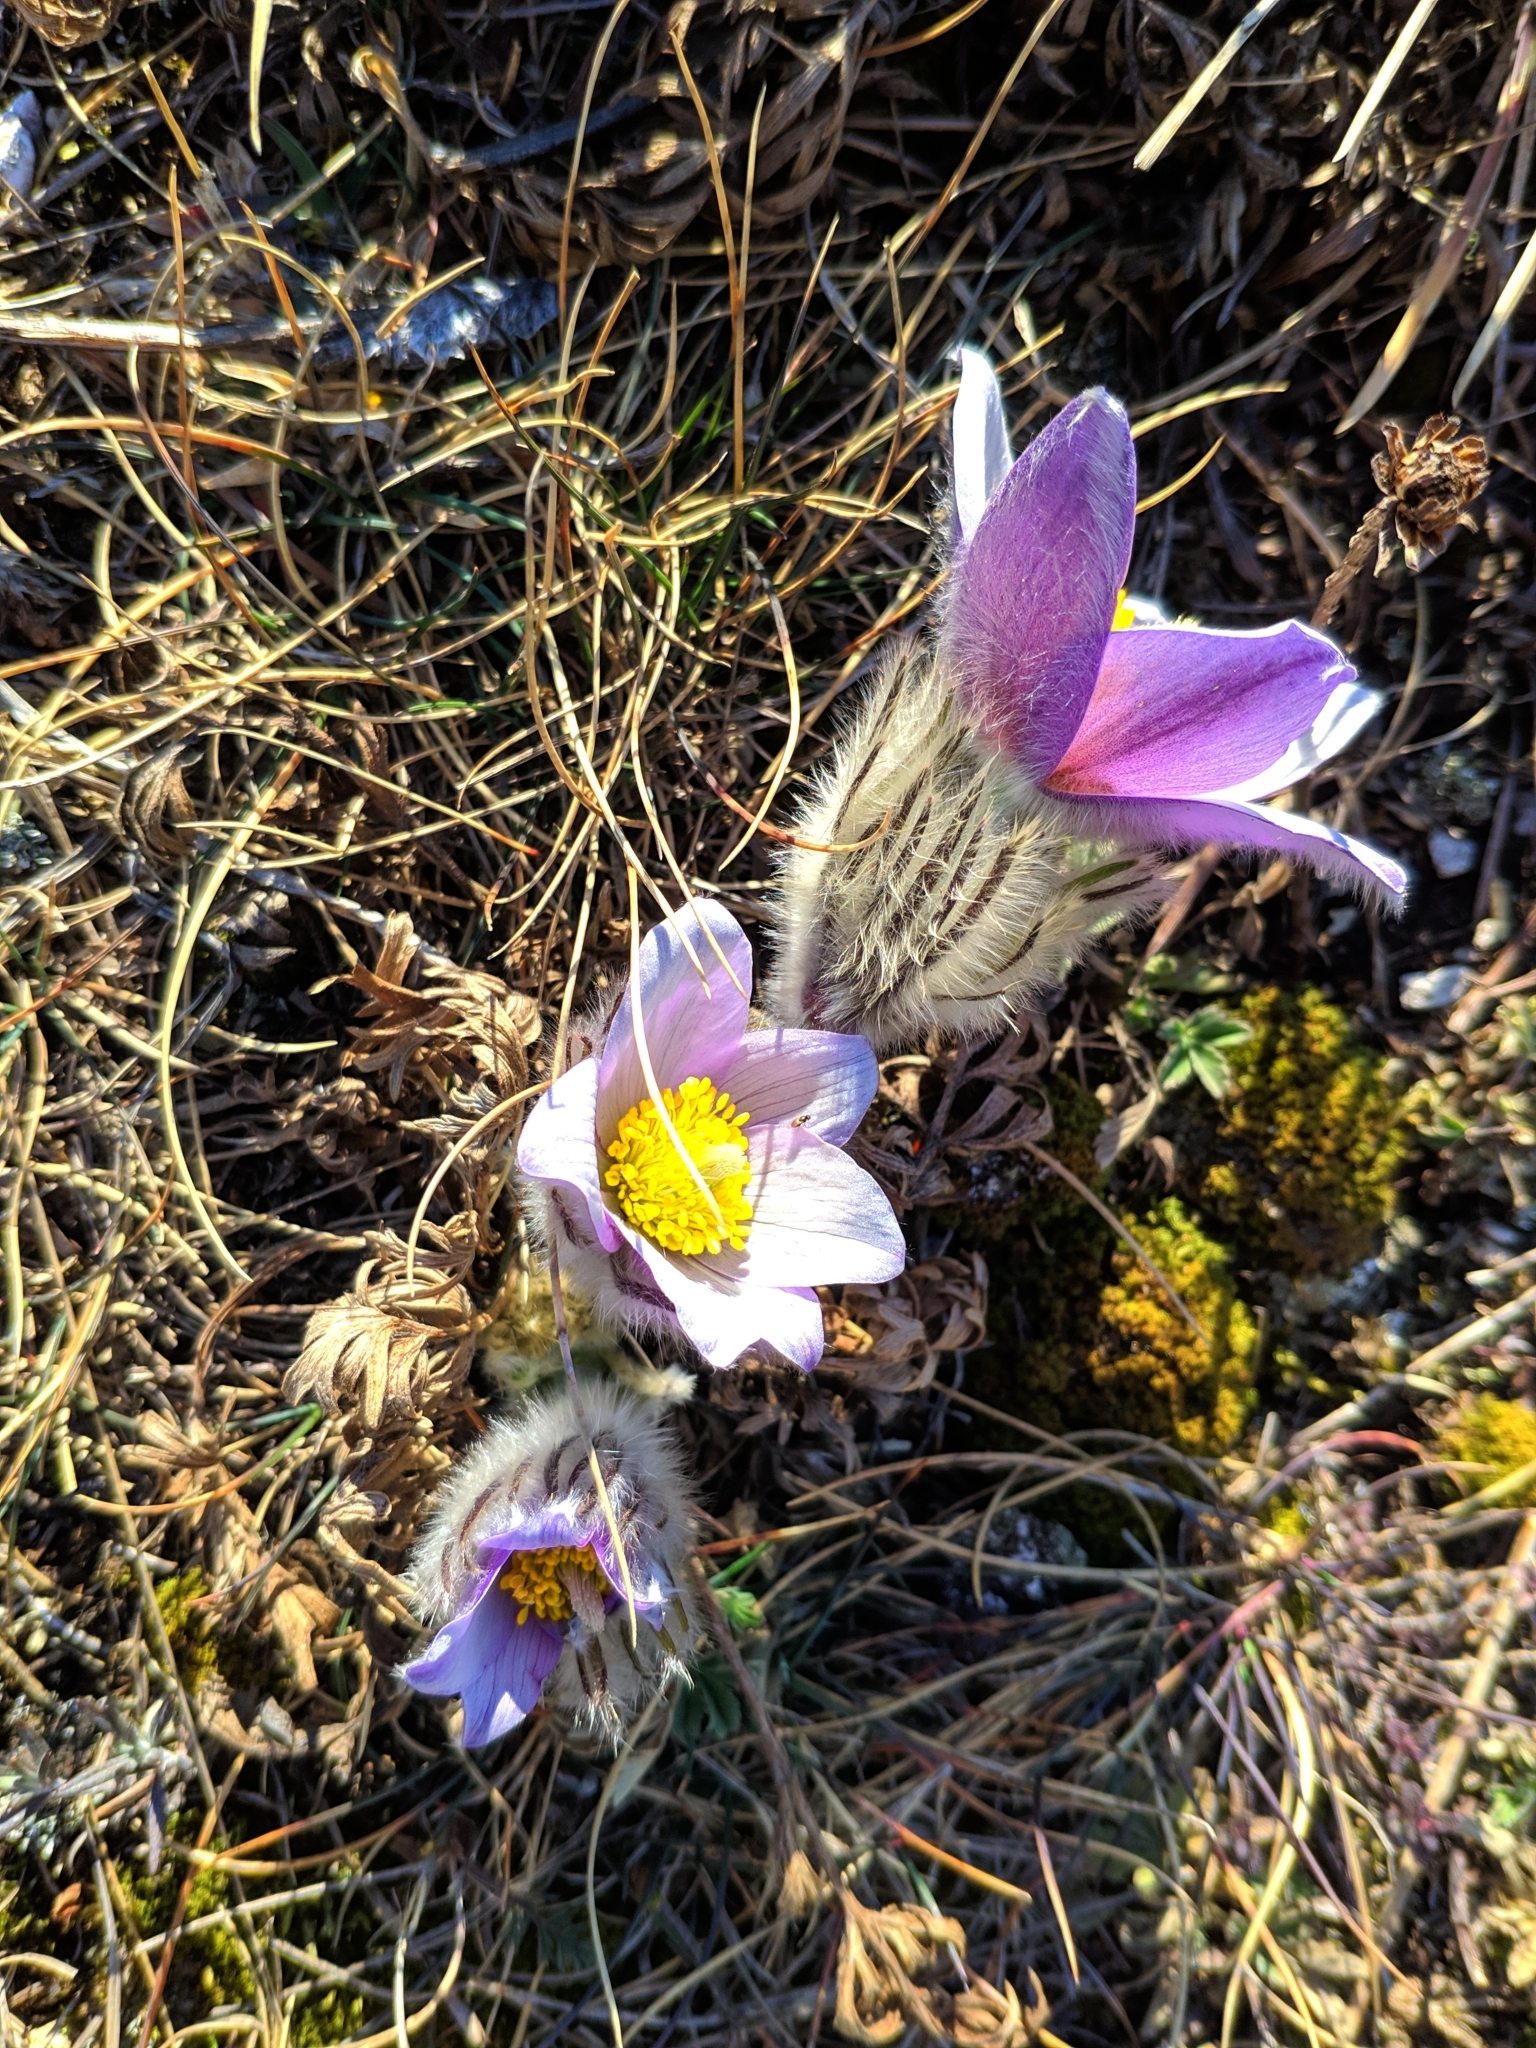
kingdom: Plantae
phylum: Tracheophyta
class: Magnoliopsida
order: Ranunculales
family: Ranunculaceae
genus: Pulsatilla
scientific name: Pulsatilla grandis
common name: Greater pasque flower
